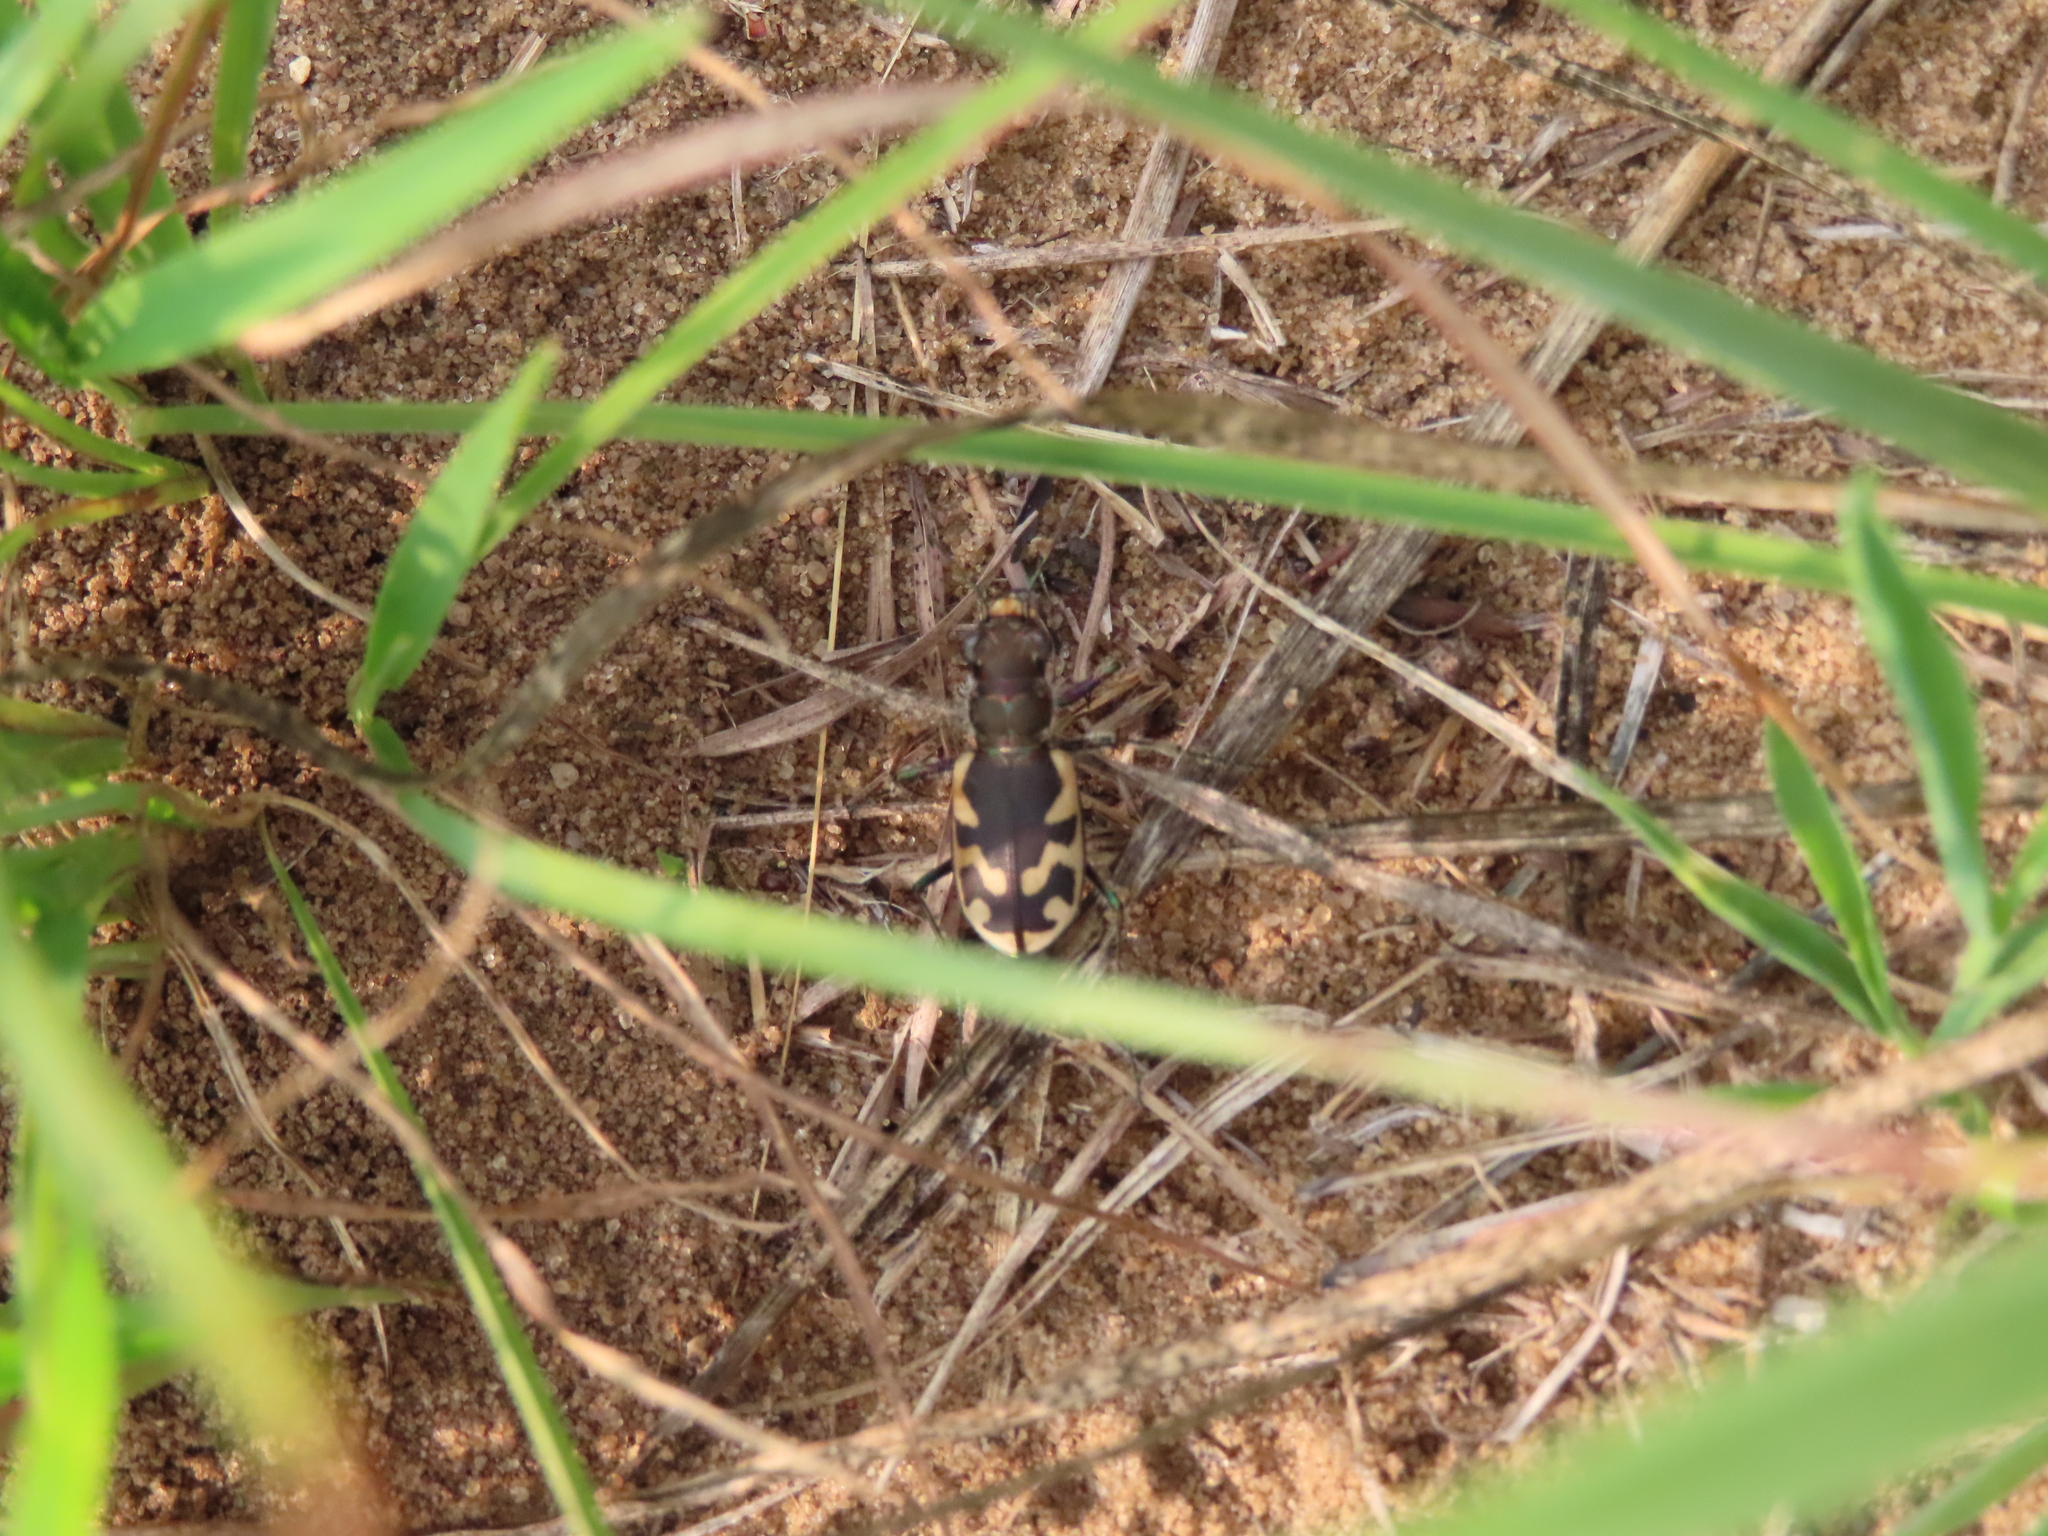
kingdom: Animalia
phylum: Arthropoda
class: Insecta
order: Coleoptera
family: Carabidae
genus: Cicindela
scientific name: Cicindela formosa
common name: Big sand tiger beetle
